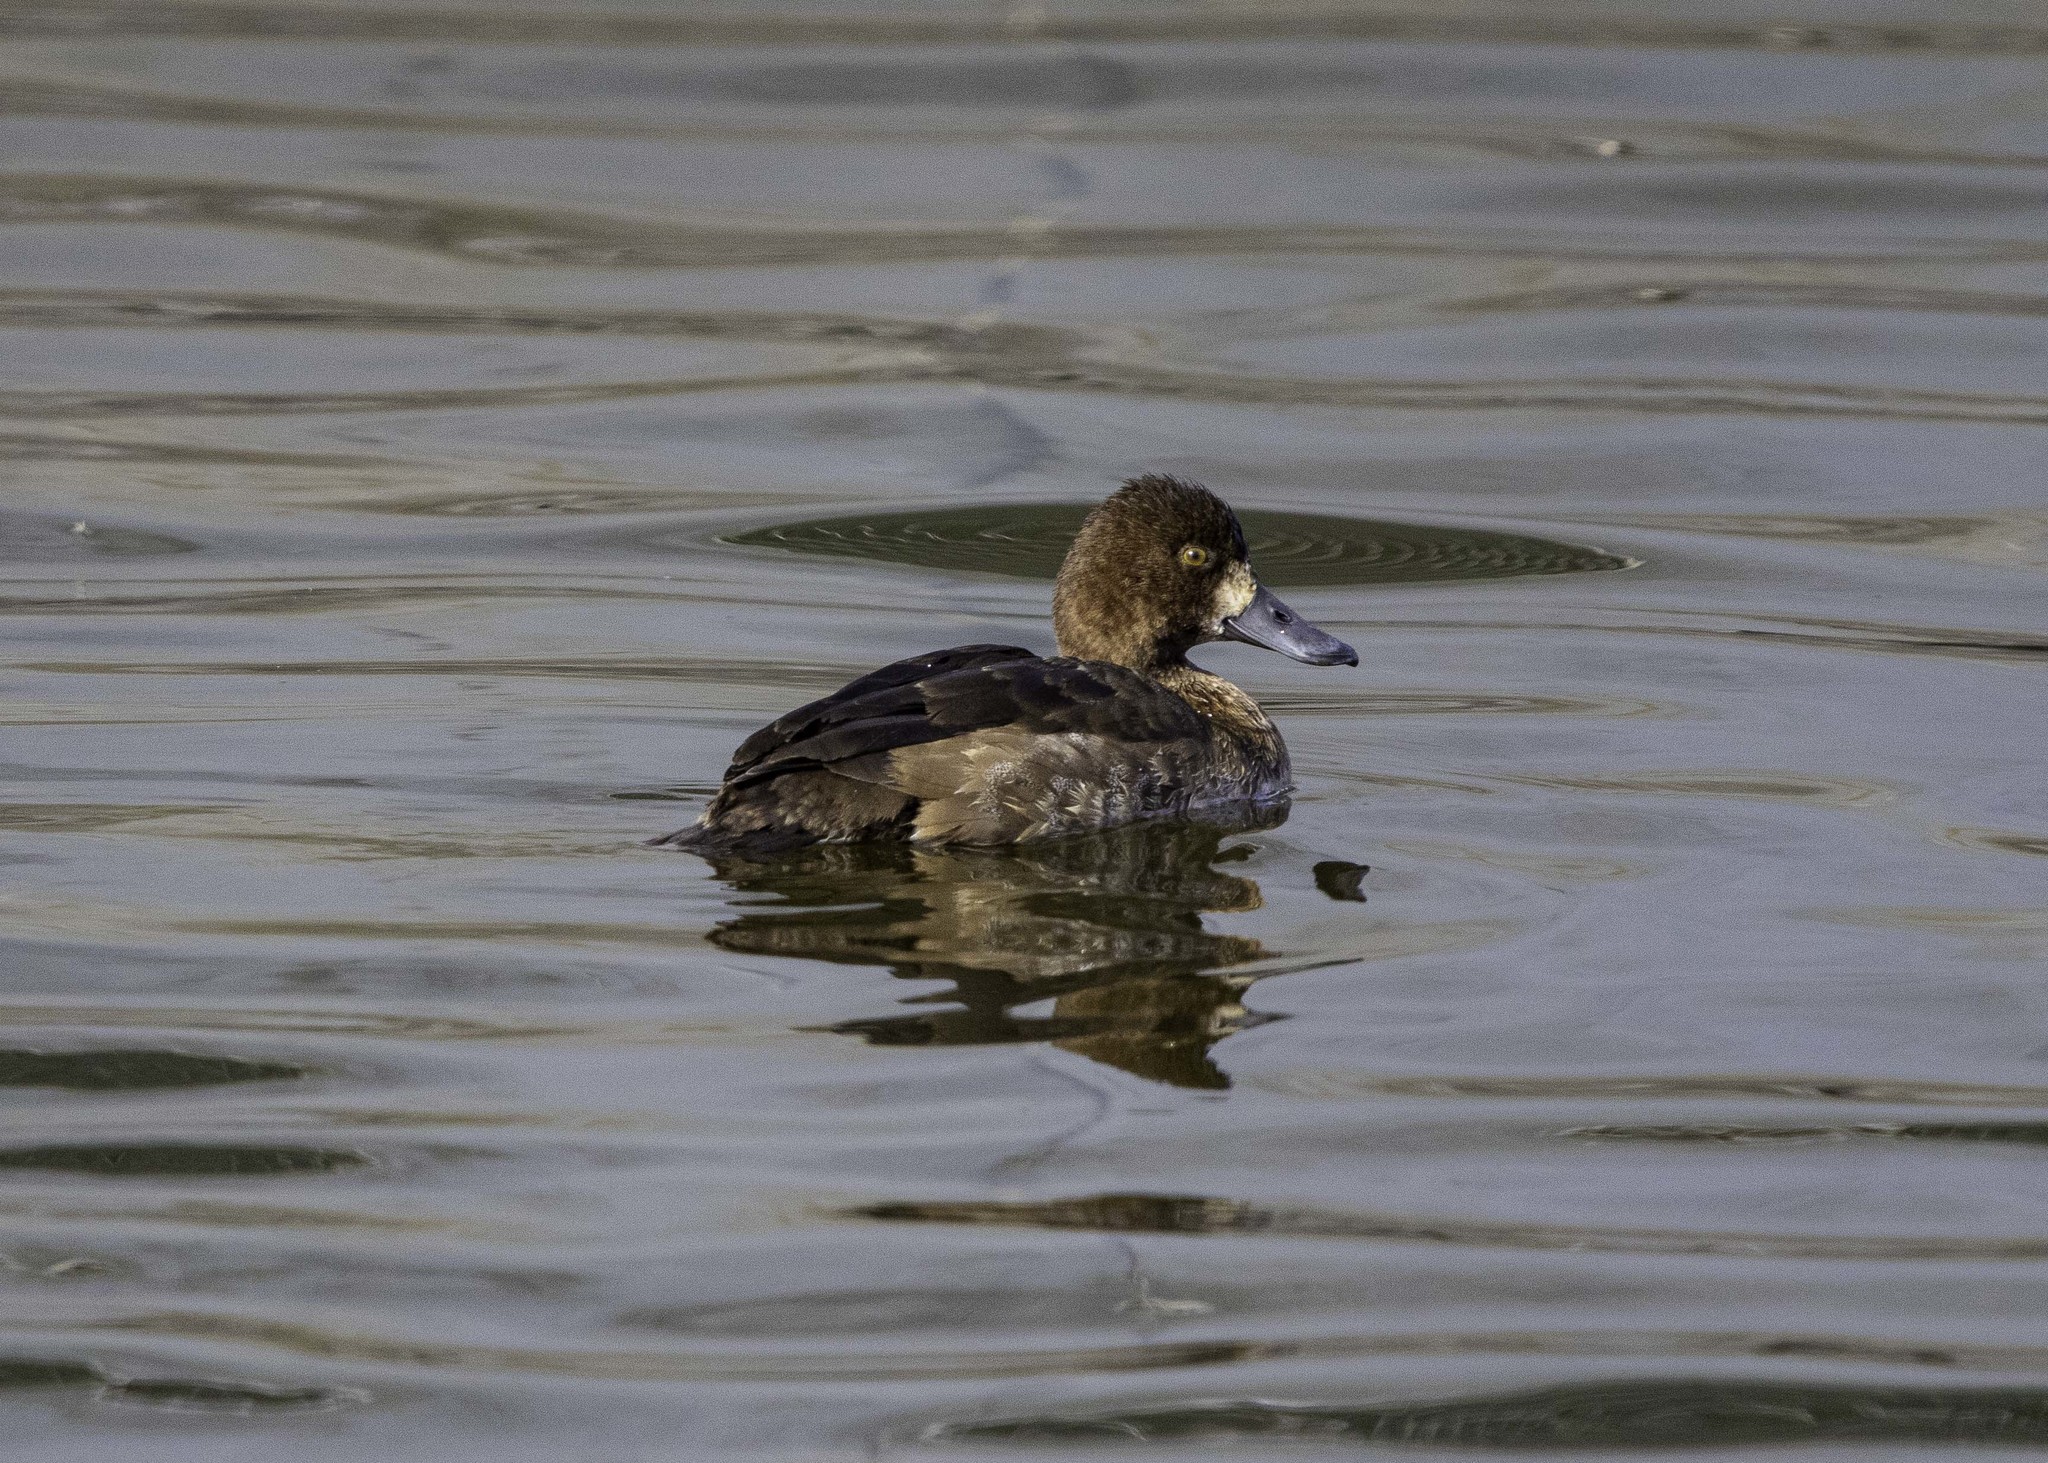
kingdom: Animalia
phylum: Chordata
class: Aves
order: Anseriformes
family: Anatidae
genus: Aythya
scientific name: Aythya affinis
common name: Lesser scaup
